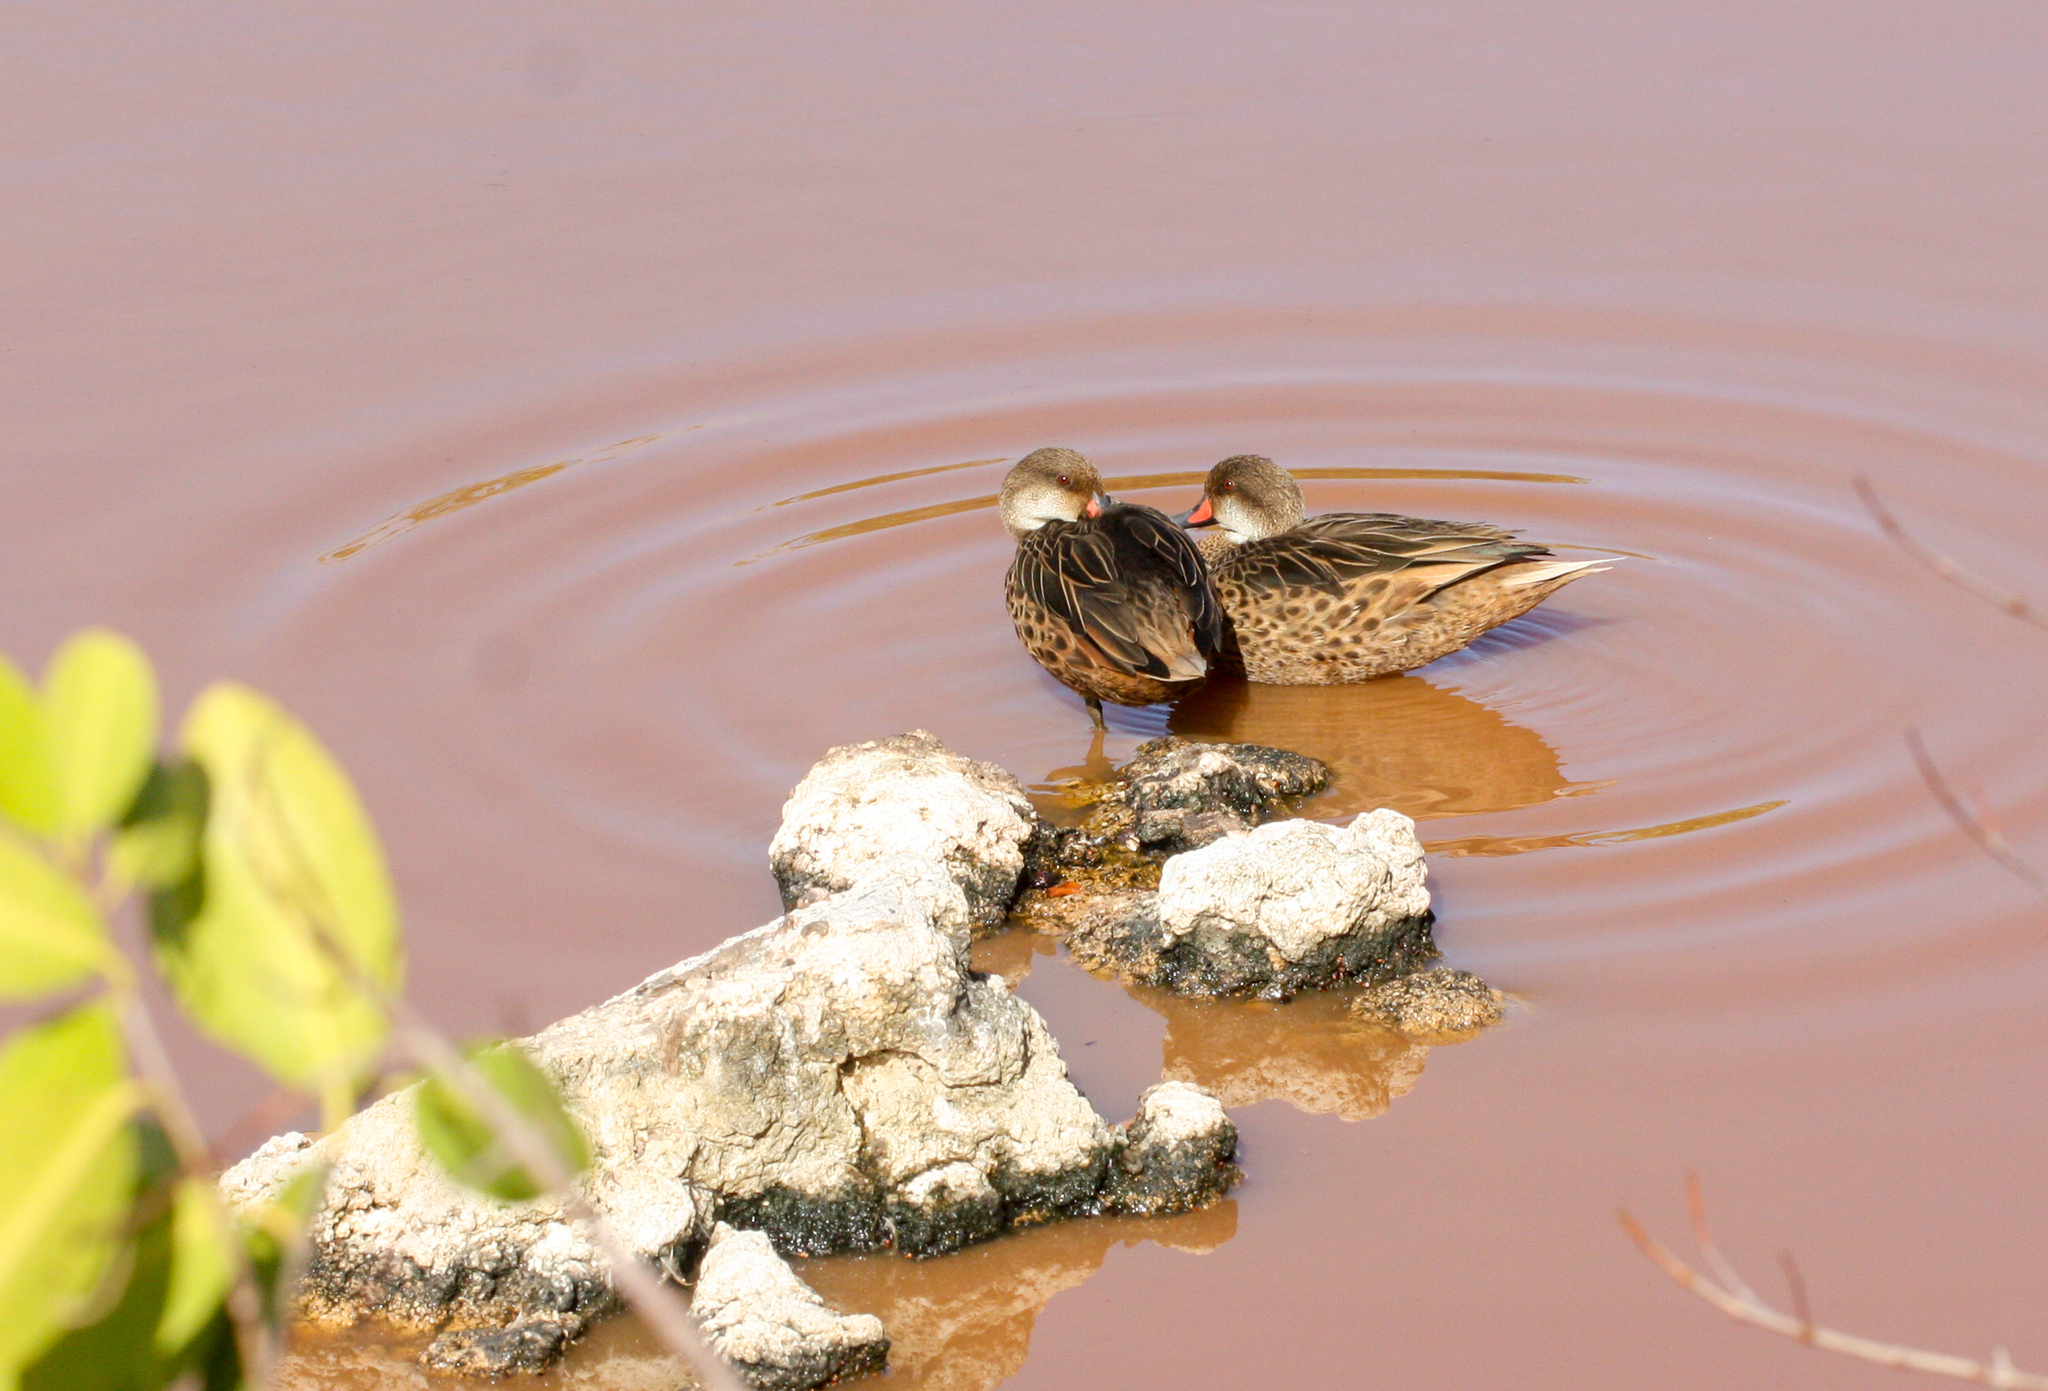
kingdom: Animalia
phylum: Chordata
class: Aves
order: Anseriformes
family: Anatidae
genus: Anas
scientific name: Anas bahamensis
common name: White-cheeked pintail
